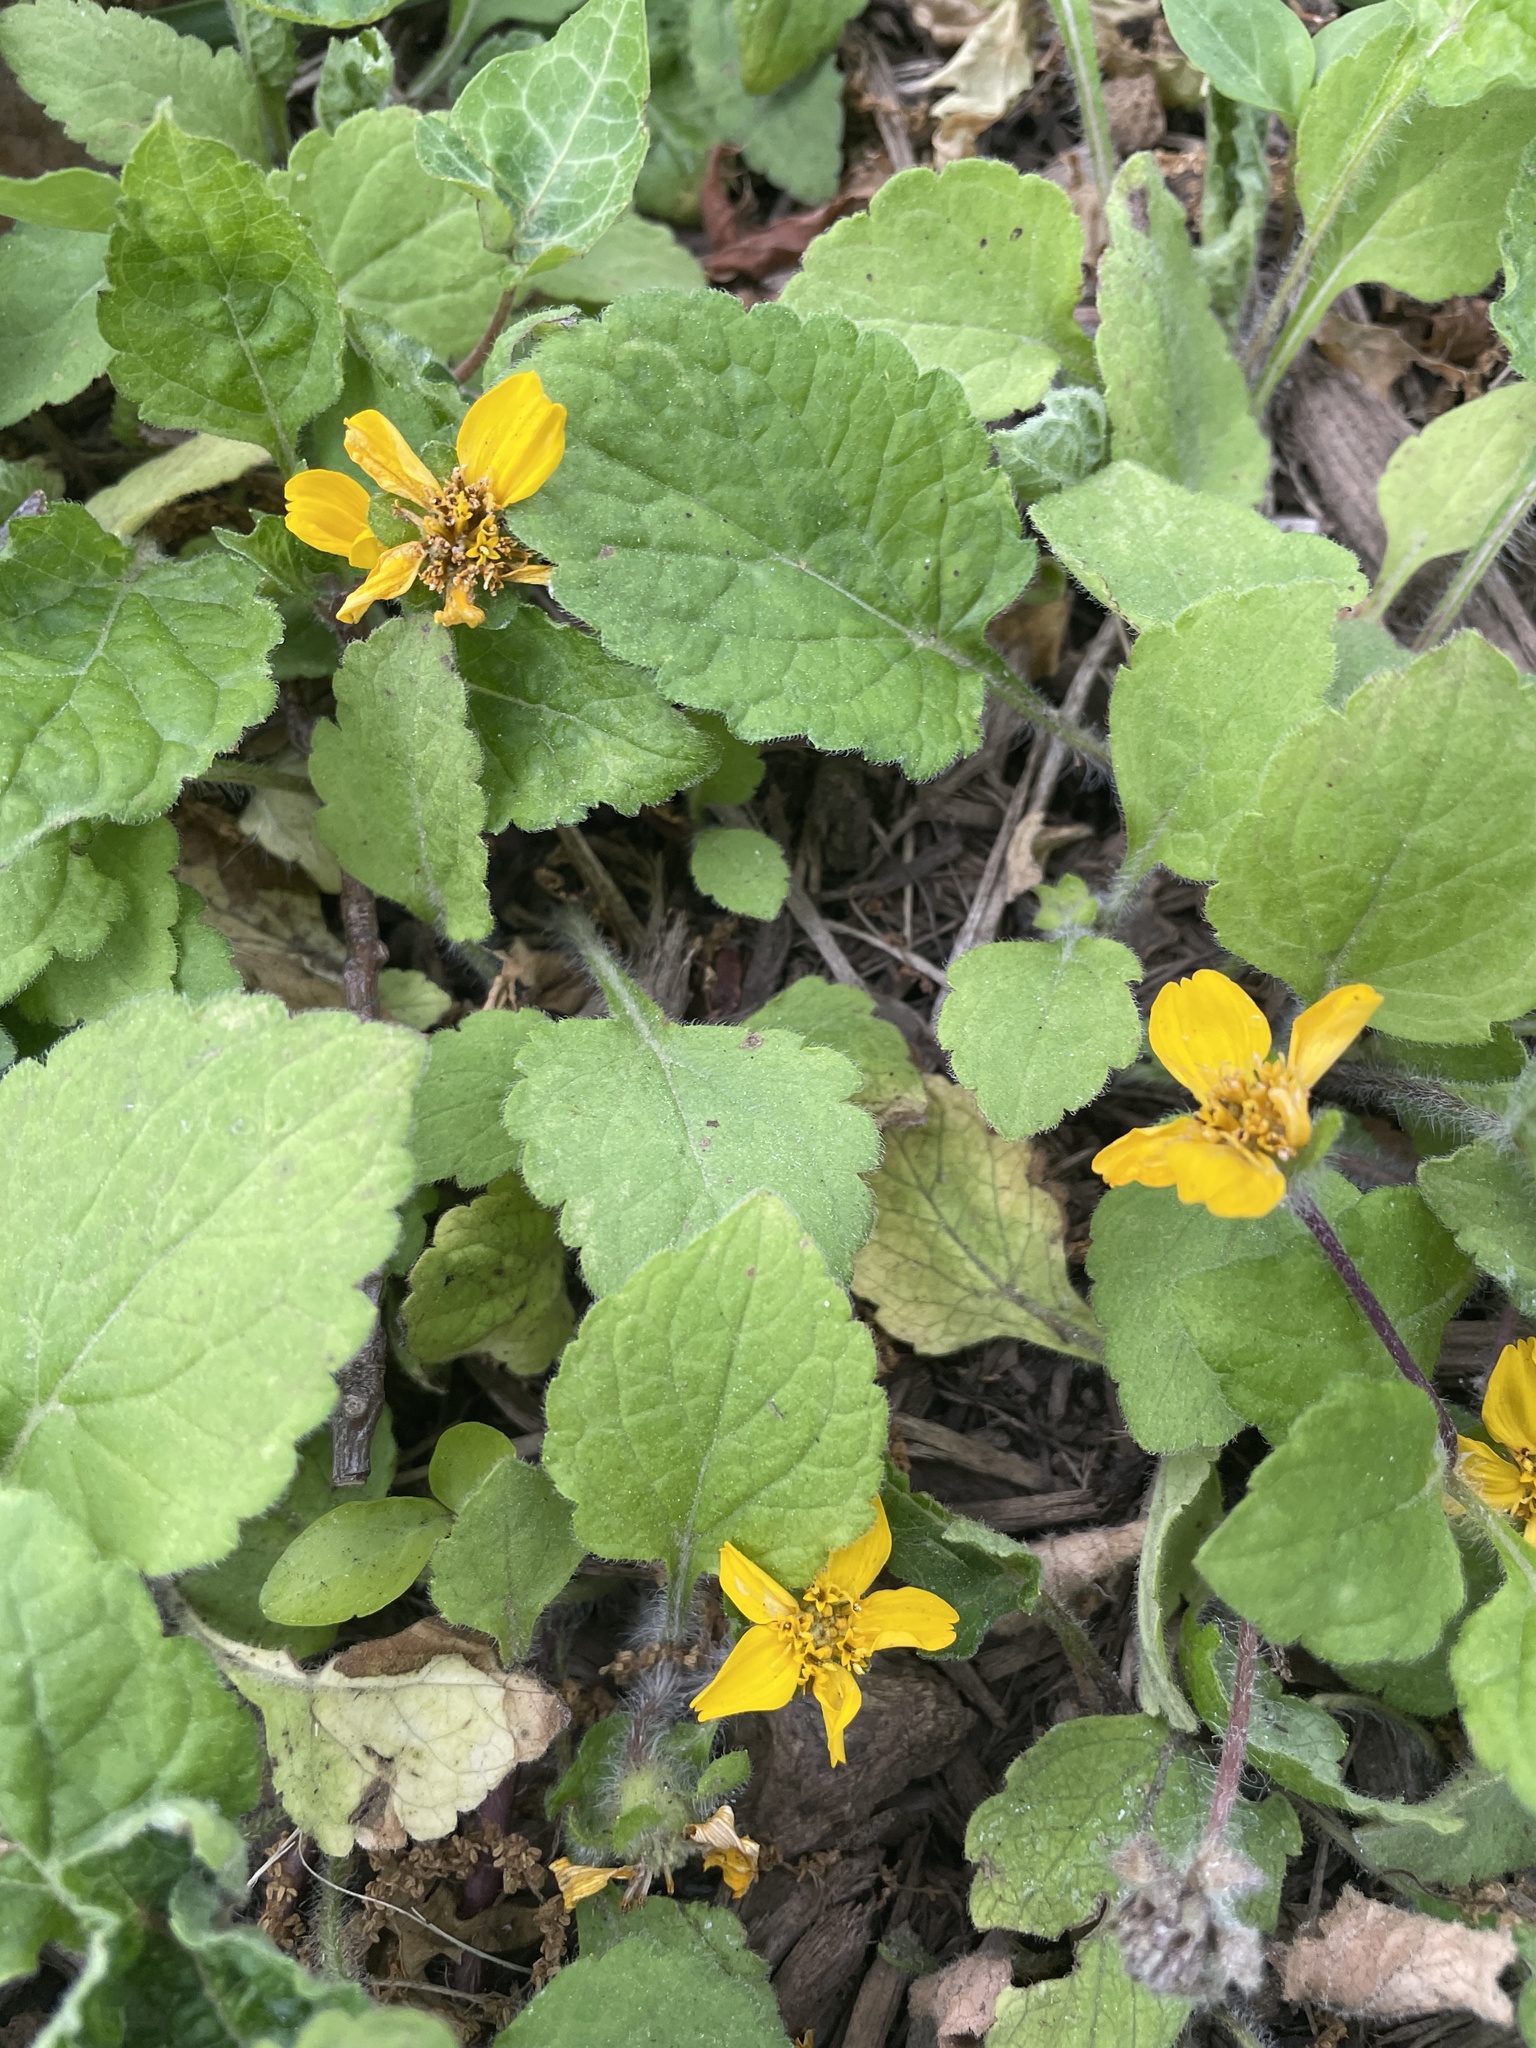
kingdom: Plantae
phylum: Tracheophyta
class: Magnoliopsida
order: Asterales
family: Asteraceae
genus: Chrysogonum
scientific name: Chrysogonum virginianum
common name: Golden-knee
